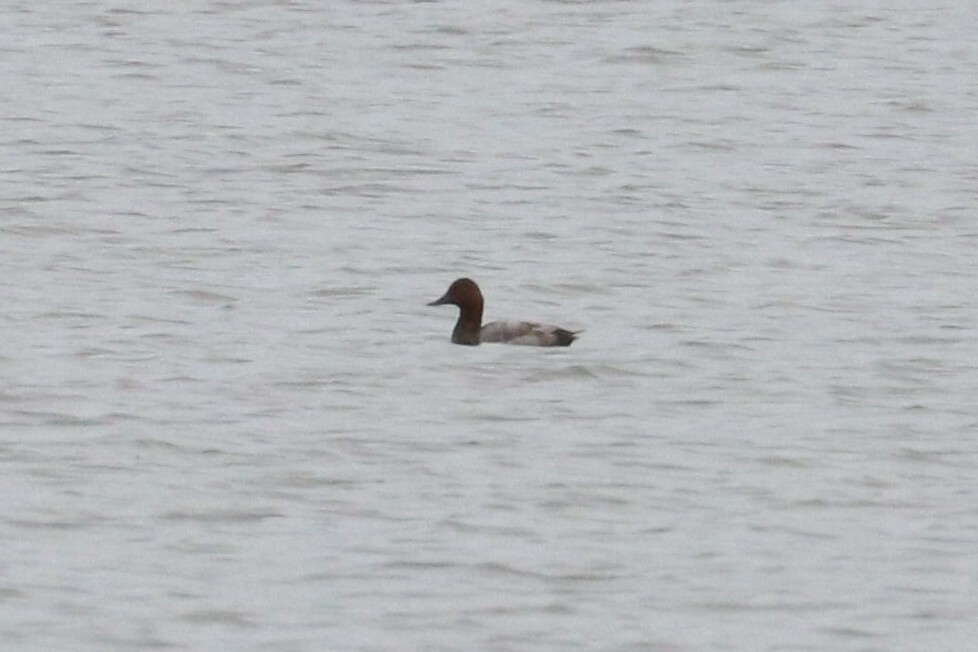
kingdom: Animalia
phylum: Chordata
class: Aves
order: Anseriformes
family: Anatidae
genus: Aythya
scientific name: Aythya ferina
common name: Common pochard
